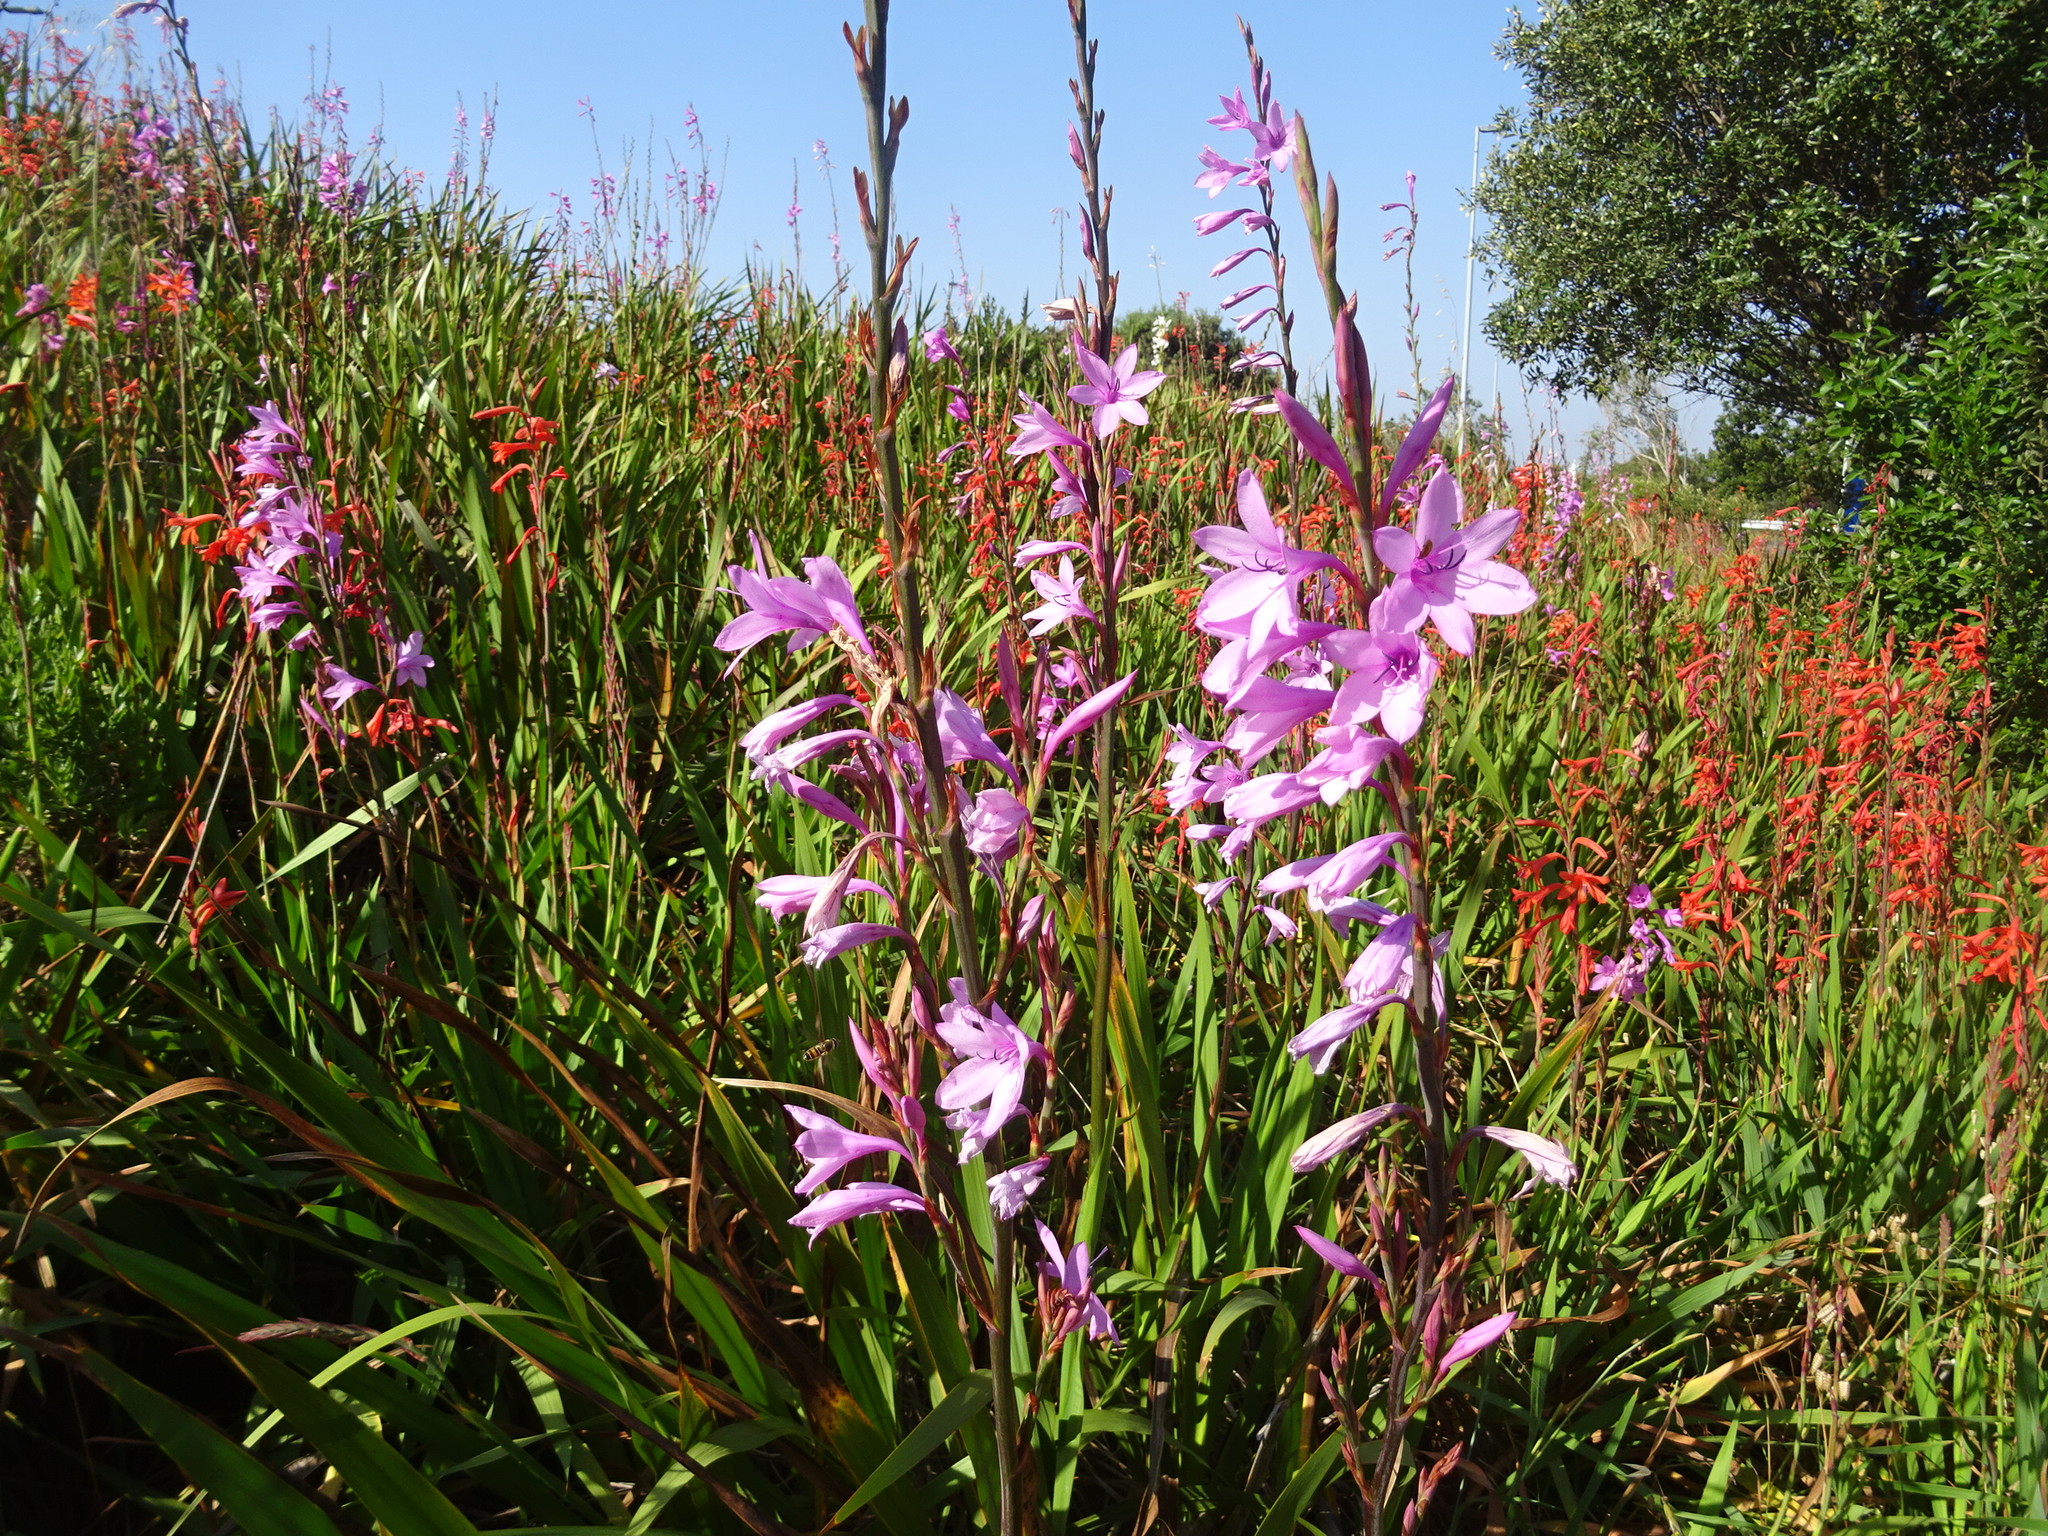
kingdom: Plantae
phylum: Tracheophyta
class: Liliopsida
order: Asparagales
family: Iridaceae
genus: Watsonia
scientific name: Watsonia borbonica
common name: Bugle-lily
